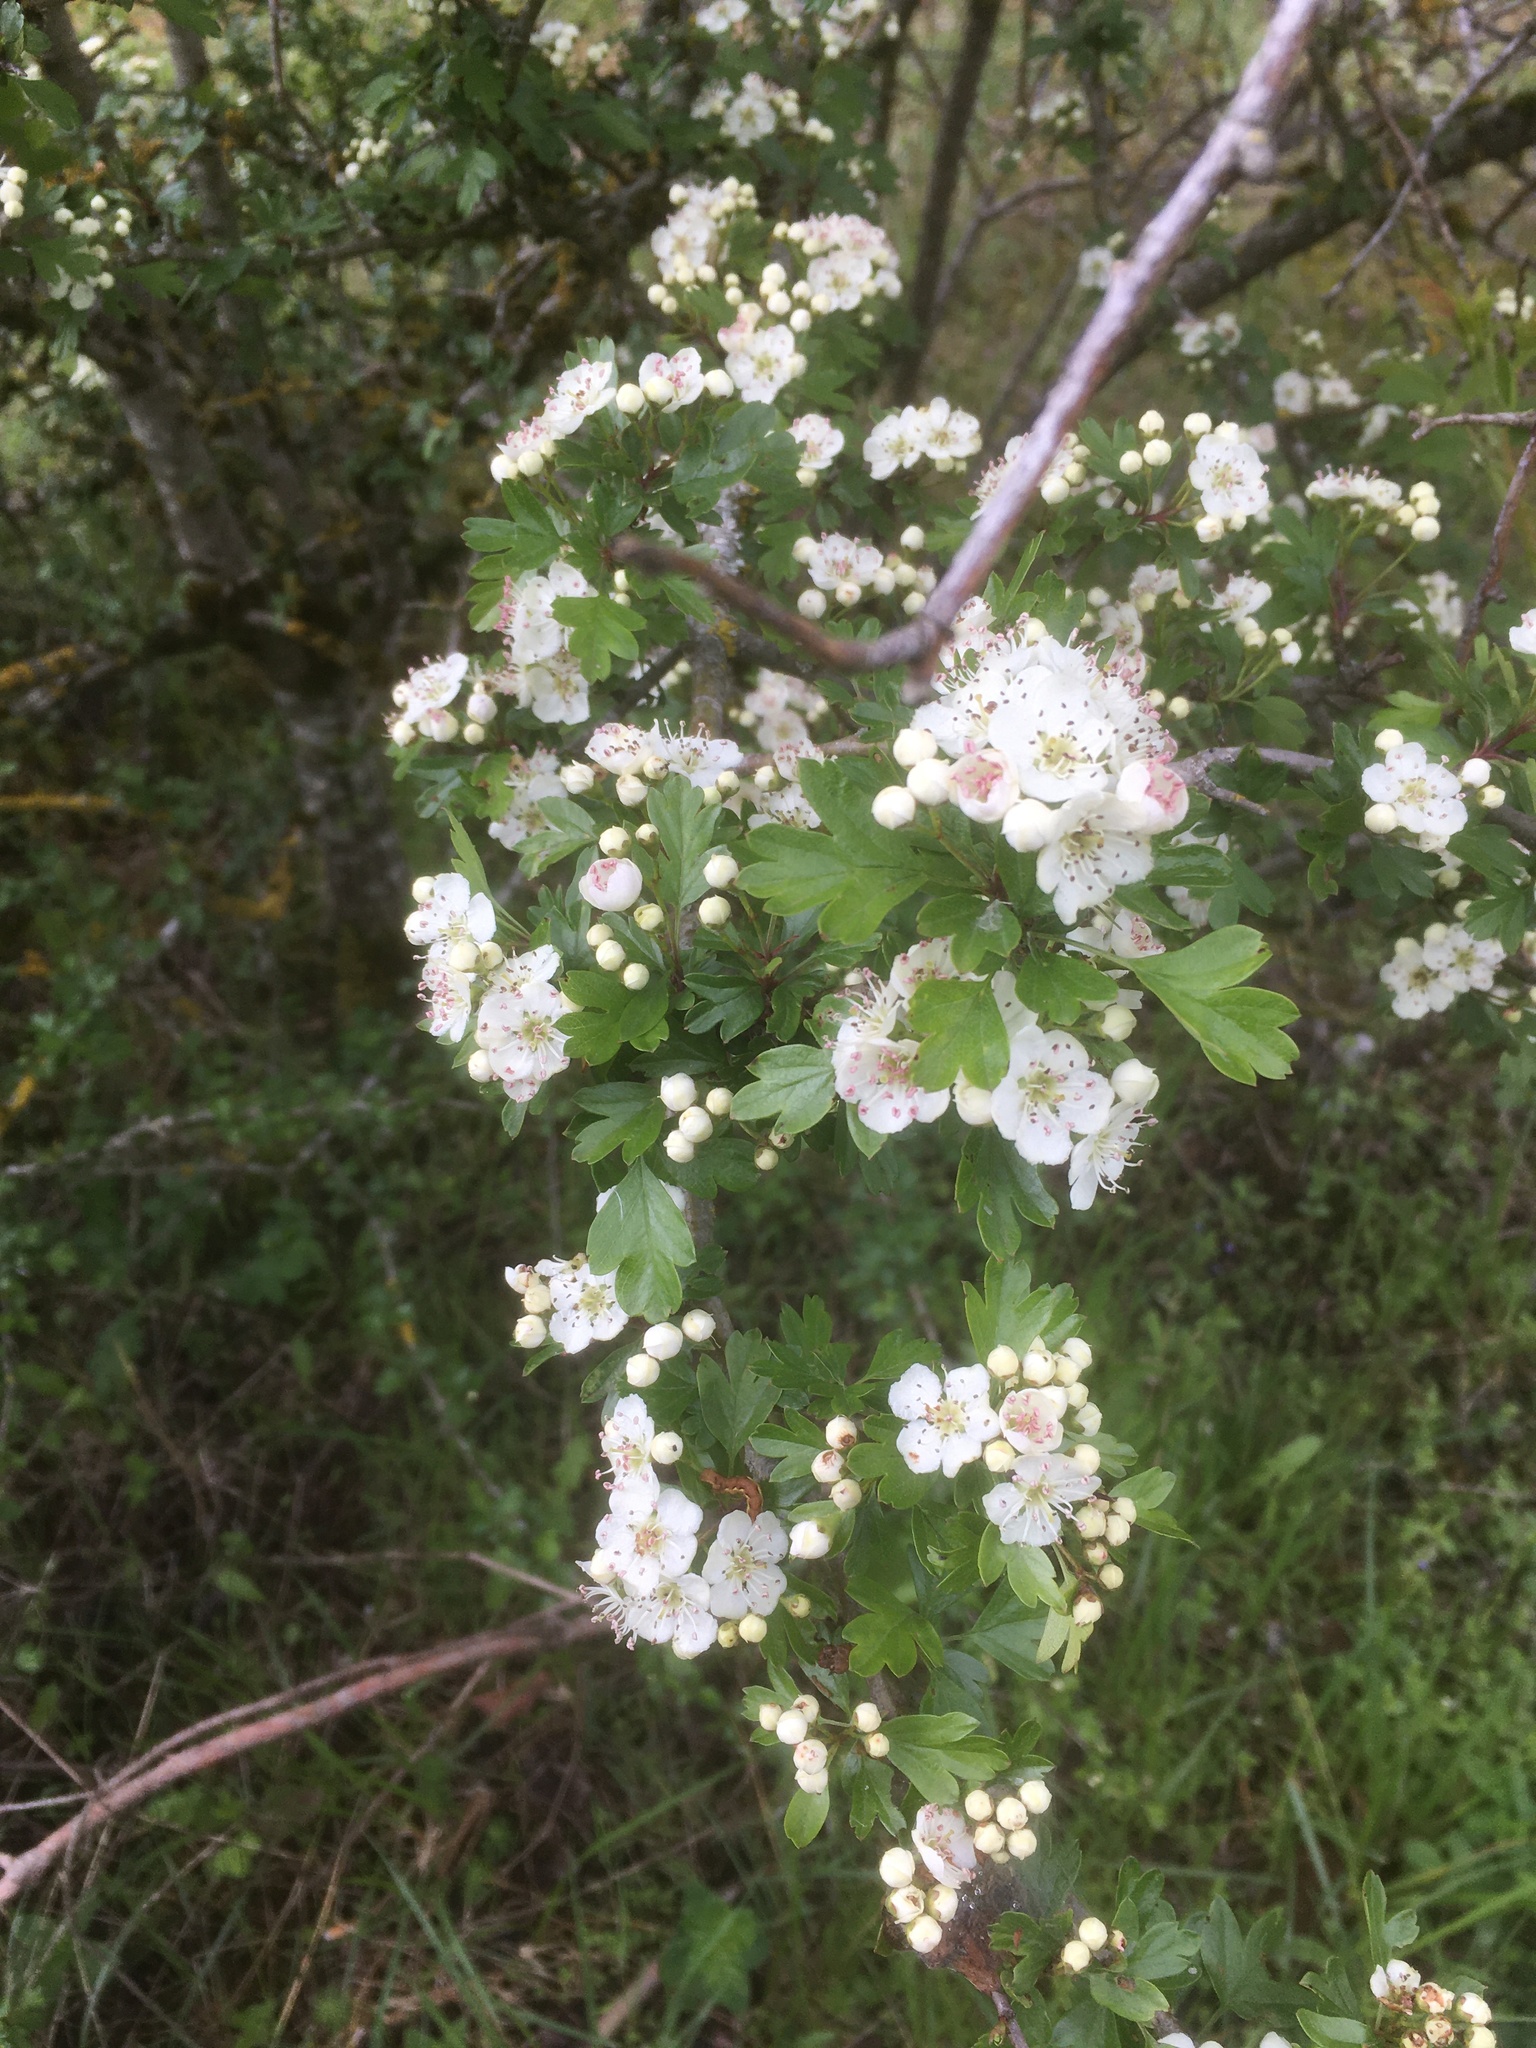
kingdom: Plantae
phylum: Tracheophyta
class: Magnoliopsida
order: Rosales
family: Rosaceae
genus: Crataegus
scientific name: Crataegus monogyna
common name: Hawthorn
